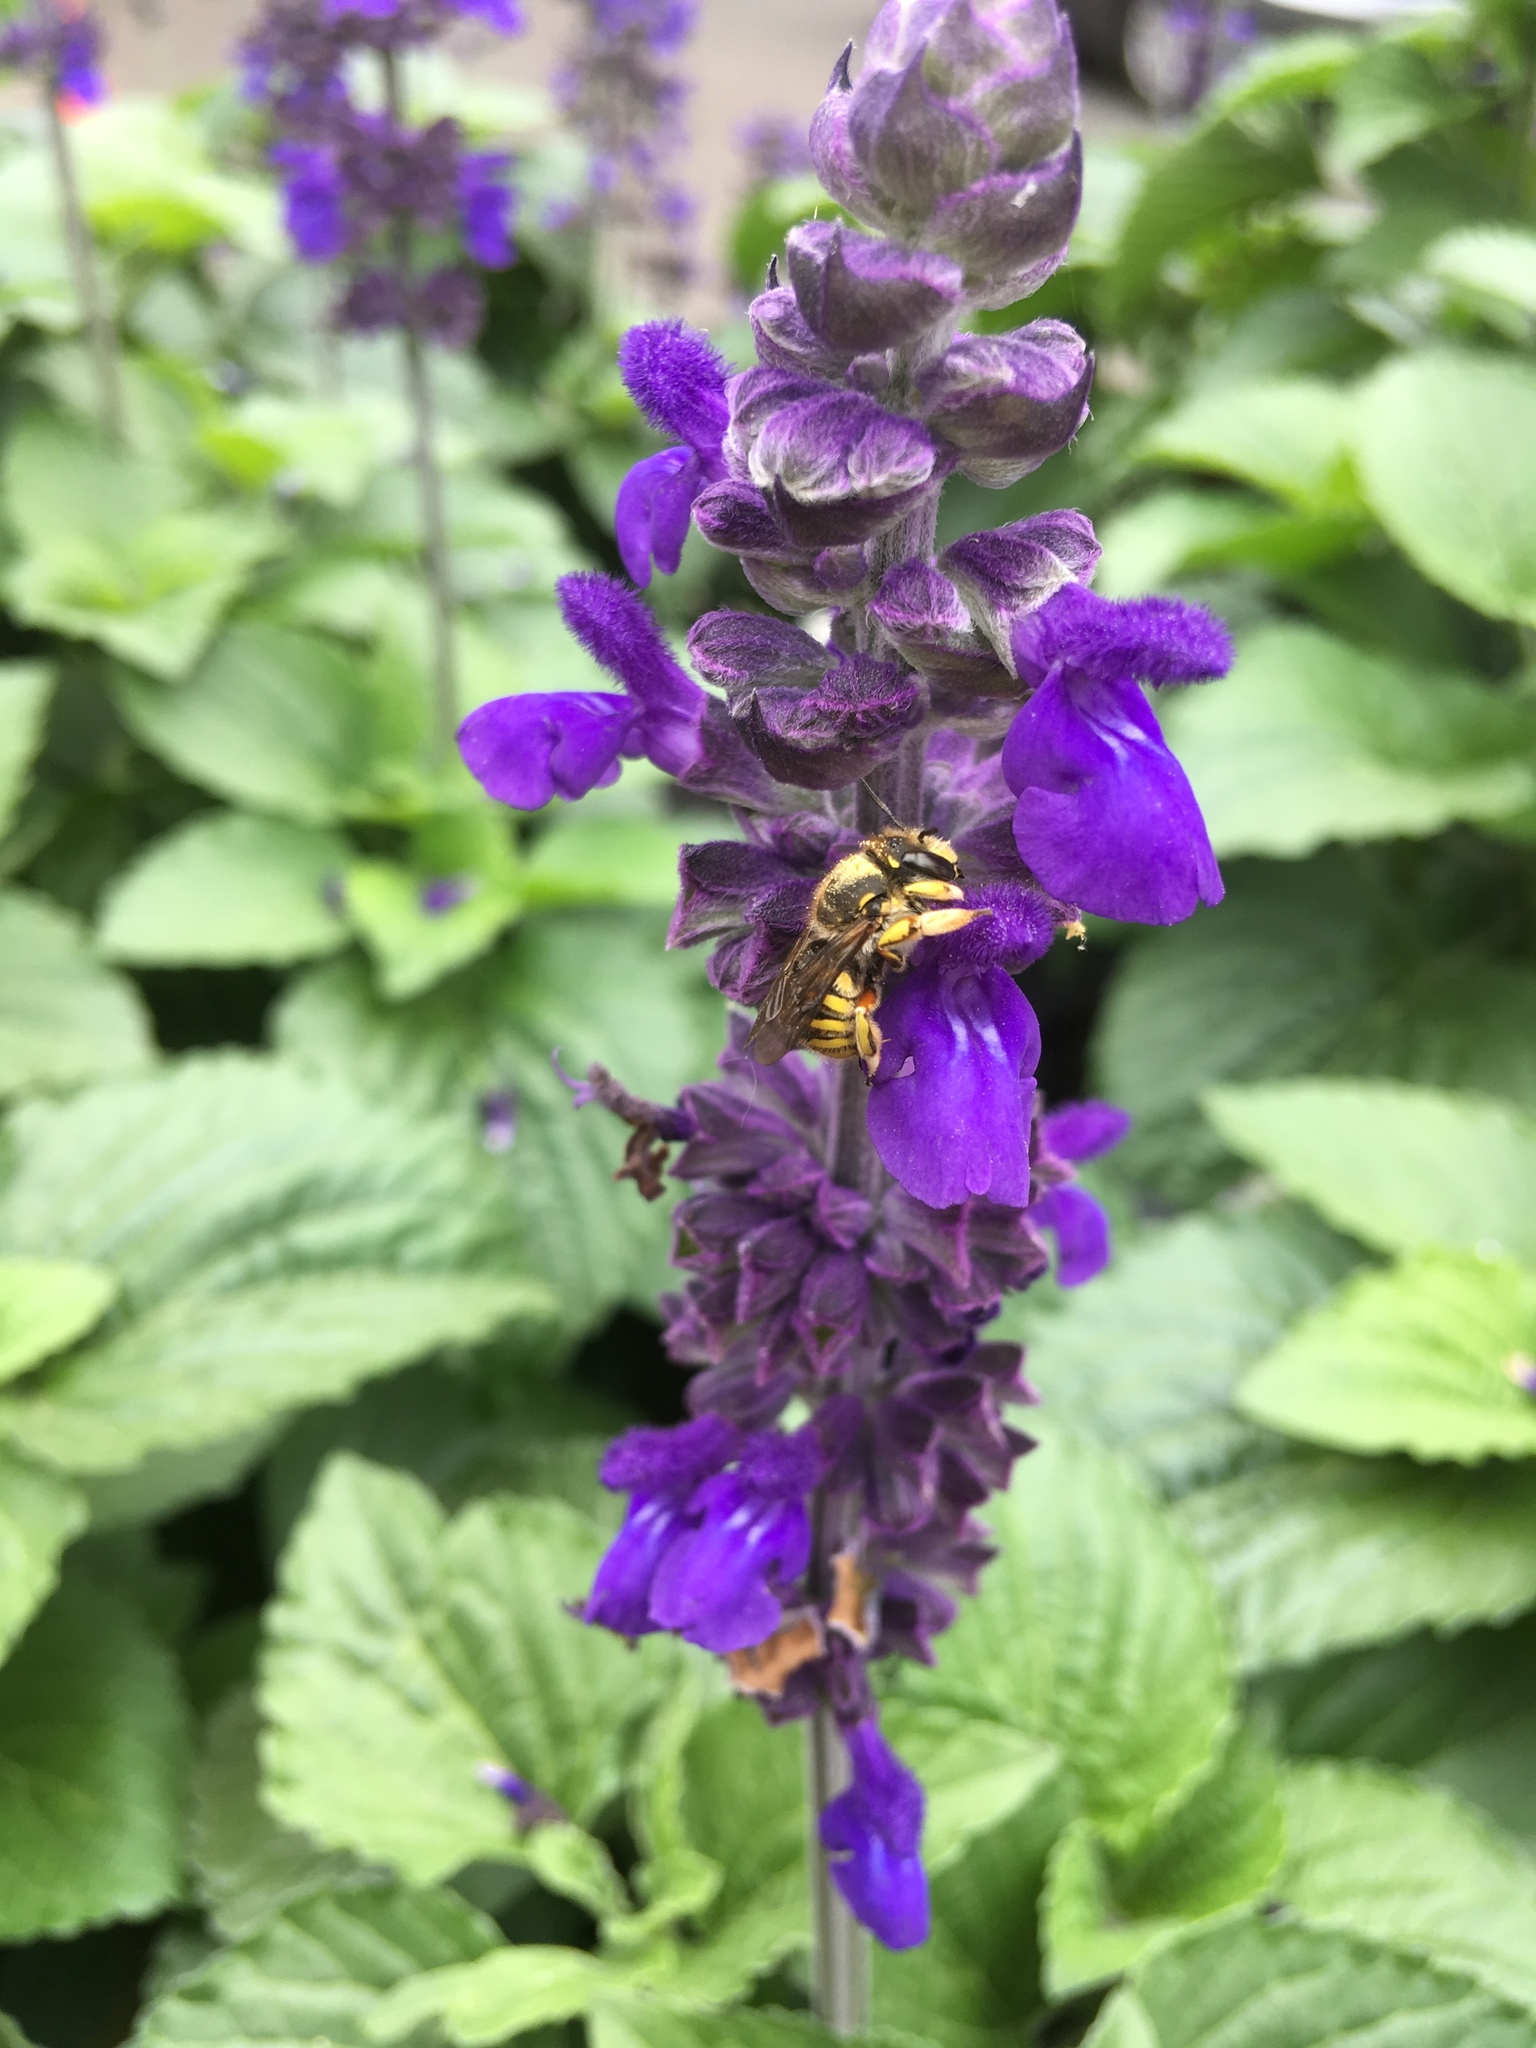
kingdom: Animalia
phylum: Arthropoda
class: Insecta
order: Hymenoptera
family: Megachilidae
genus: Anthidium
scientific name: Anthidium manicatum
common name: Wool carder bee
